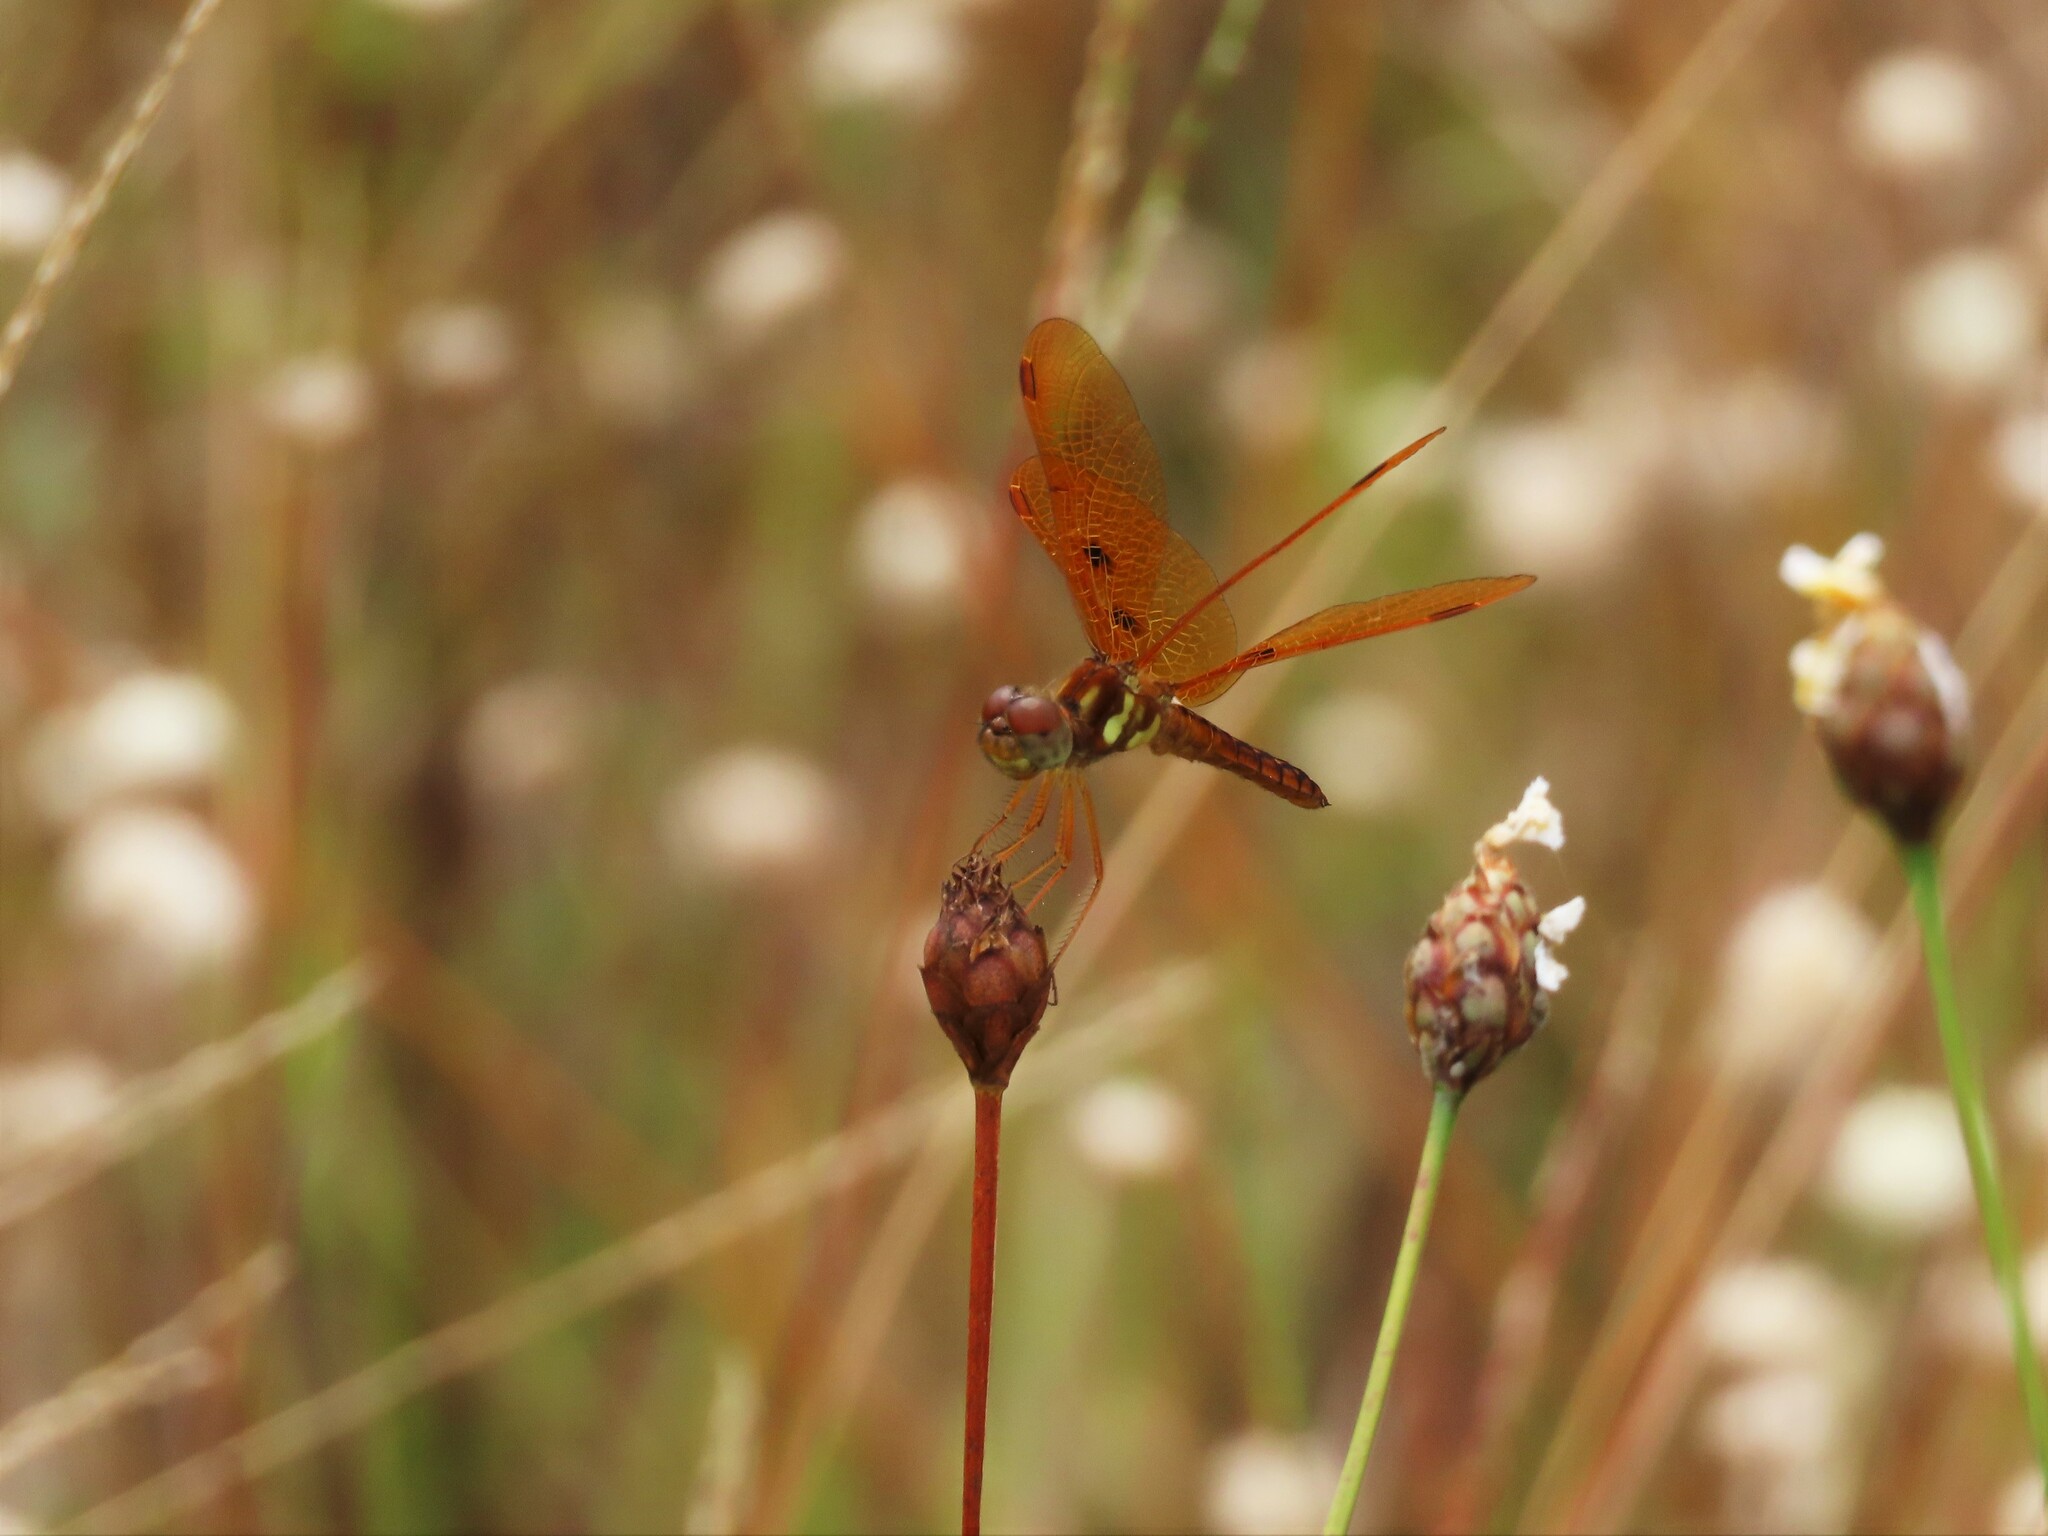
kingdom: Animalia
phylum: Arthropoda
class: Insecta
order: Odonata
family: Libellulidae
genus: Perithemis
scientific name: Perithemis tenera
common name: Eastern amberwing
